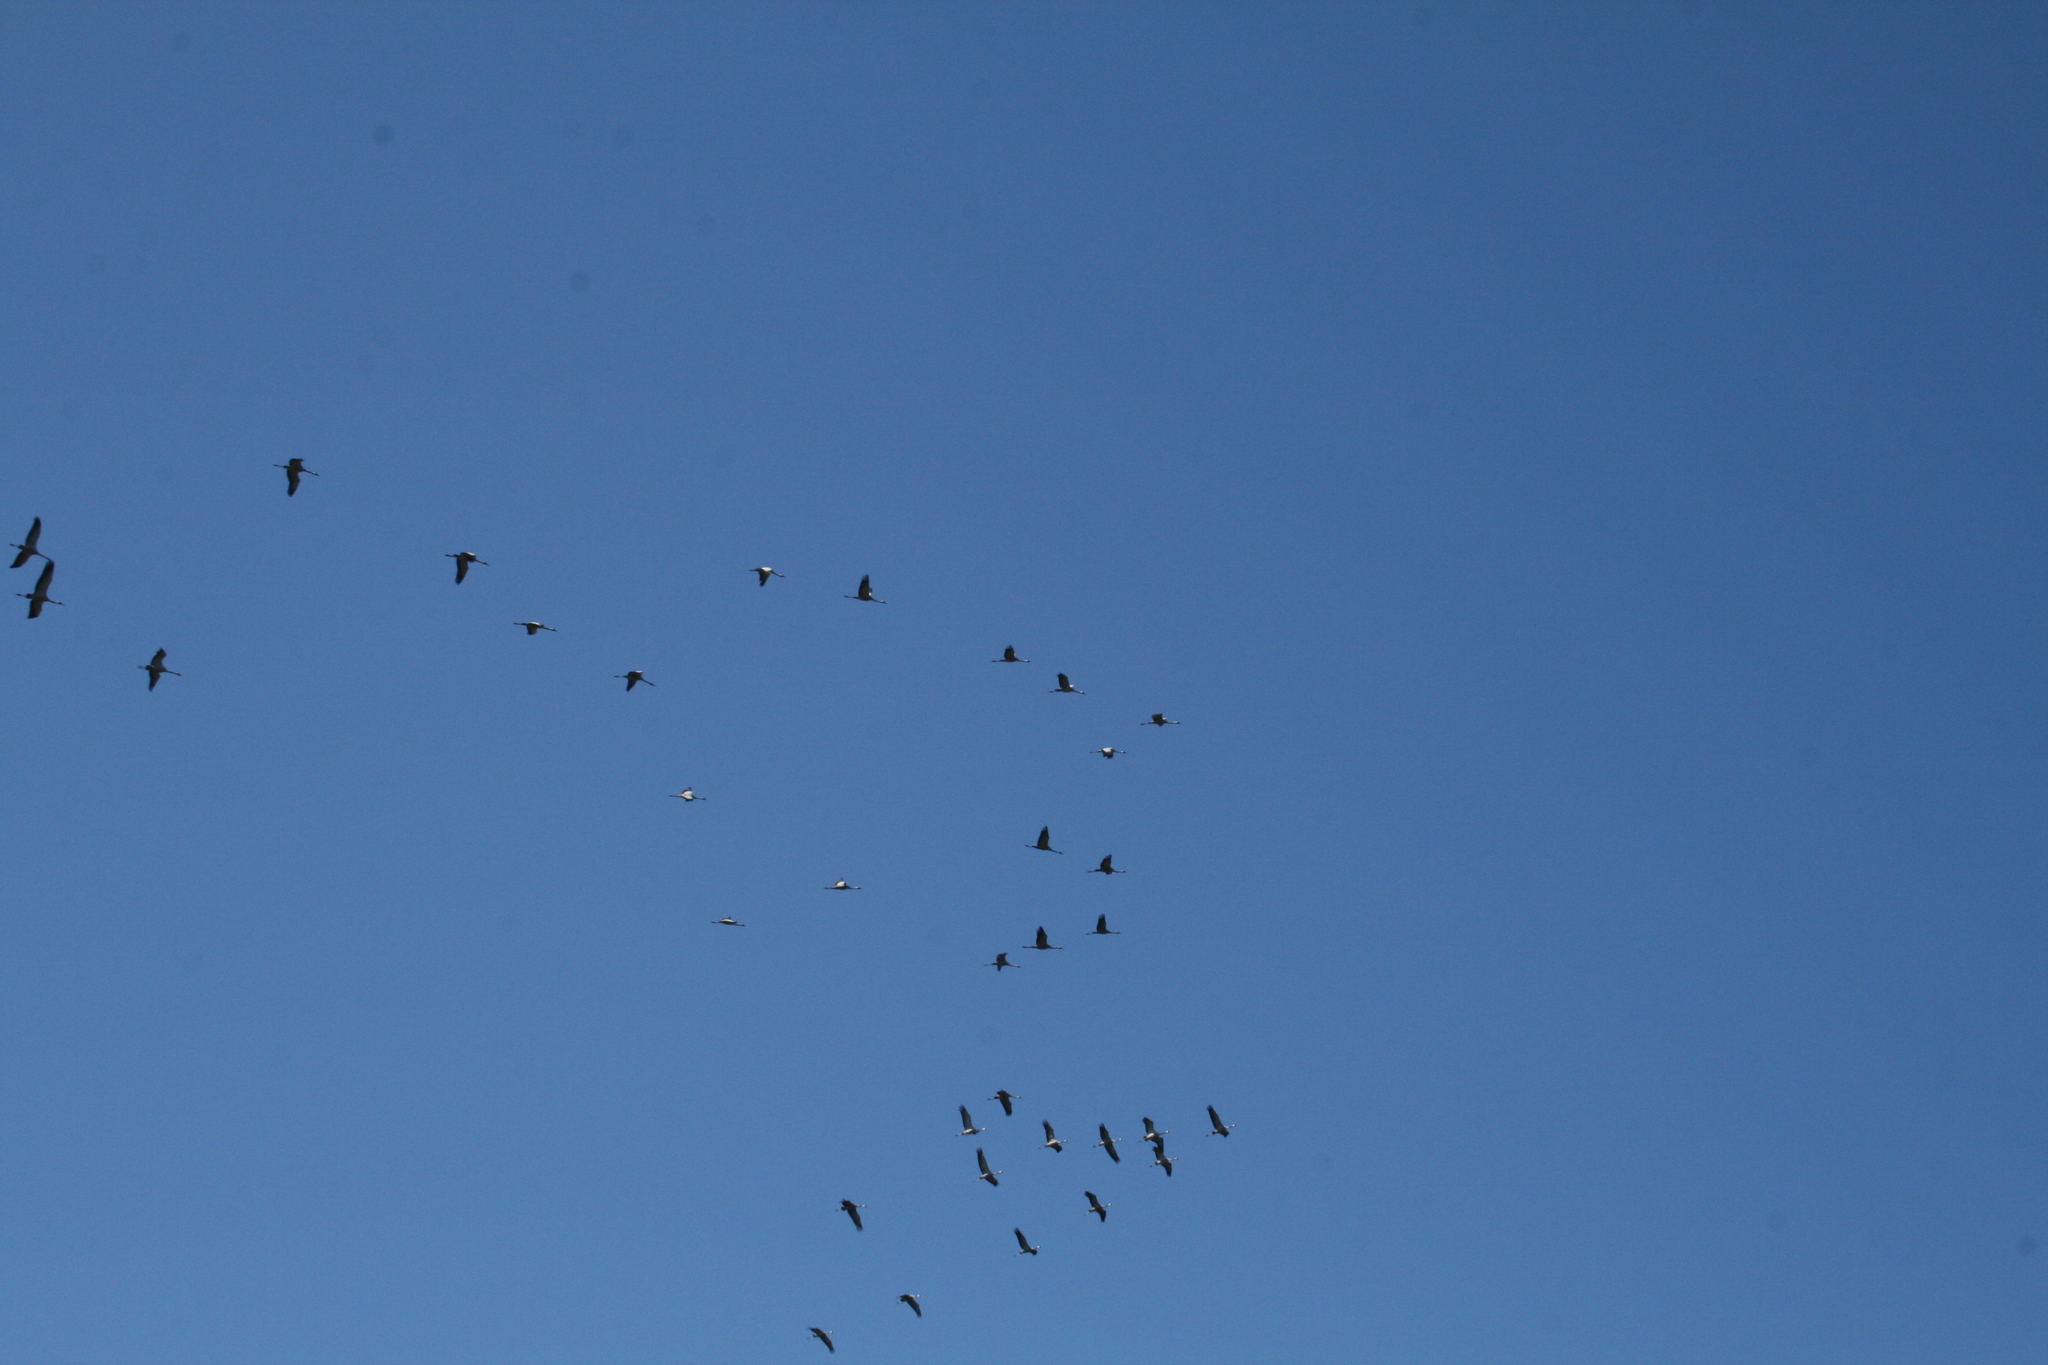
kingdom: Animalia
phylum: Chordata
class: Aves
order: Gruiformes
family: Gruidae
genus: Grus
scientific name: Grus grus
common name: Common crane
